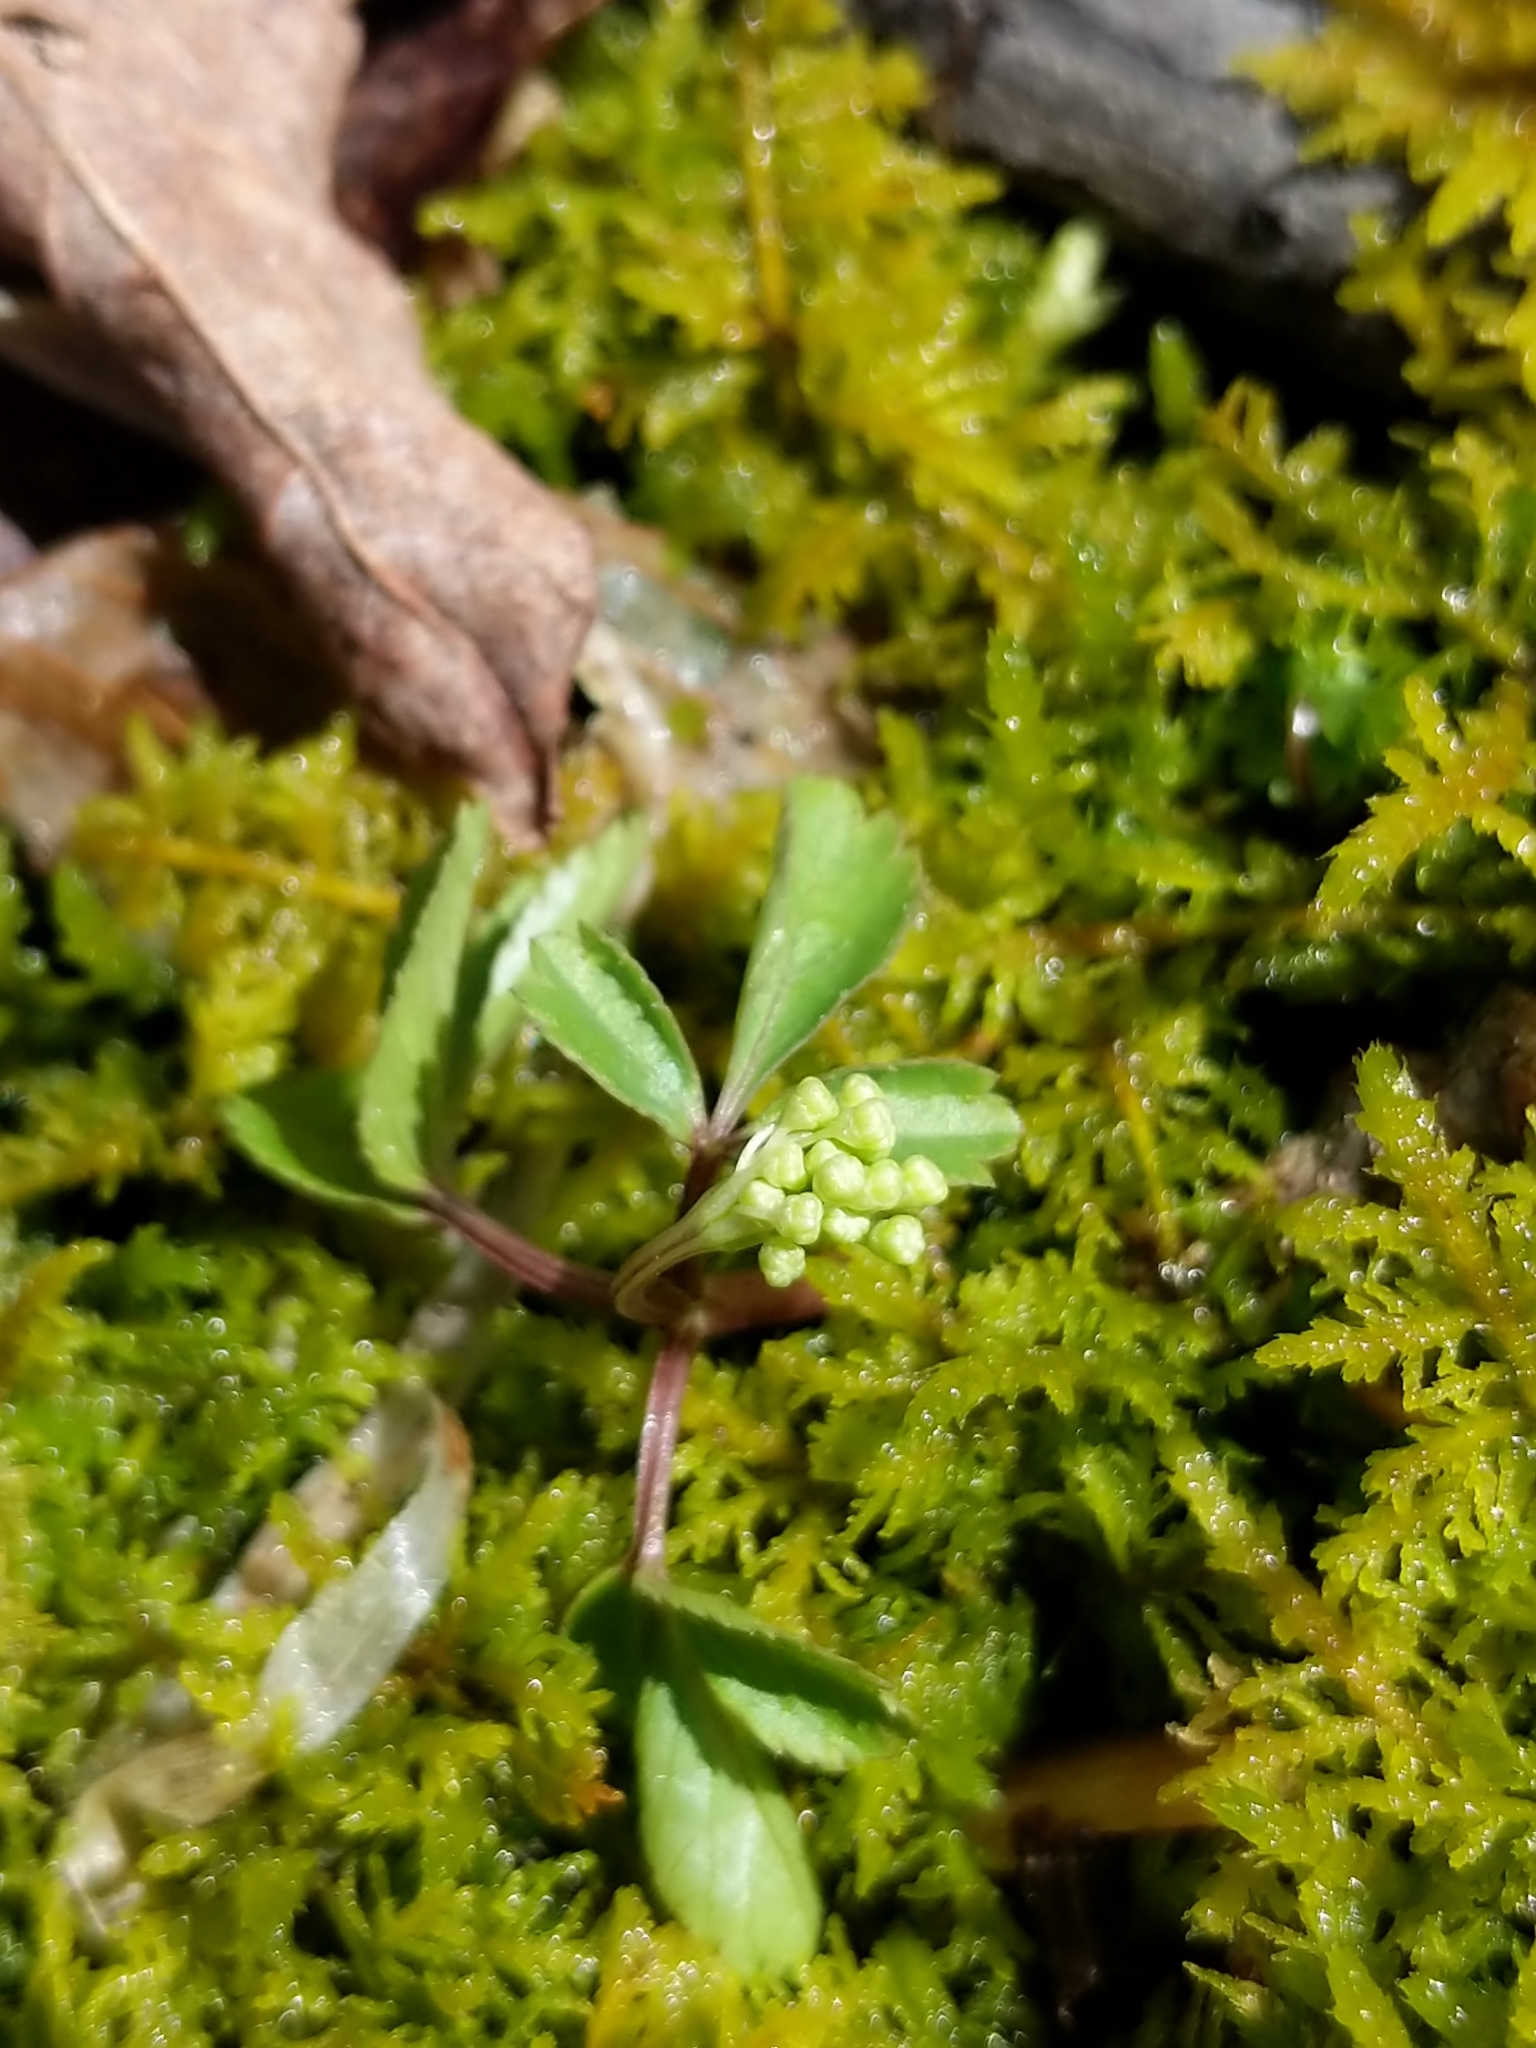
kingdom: Plantae
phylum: Tracheophyta
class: Magnoliopsida
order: Apiales
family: Araliaceae
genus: Panax
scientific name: Panax trifolius
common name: Dwarf ginseng
